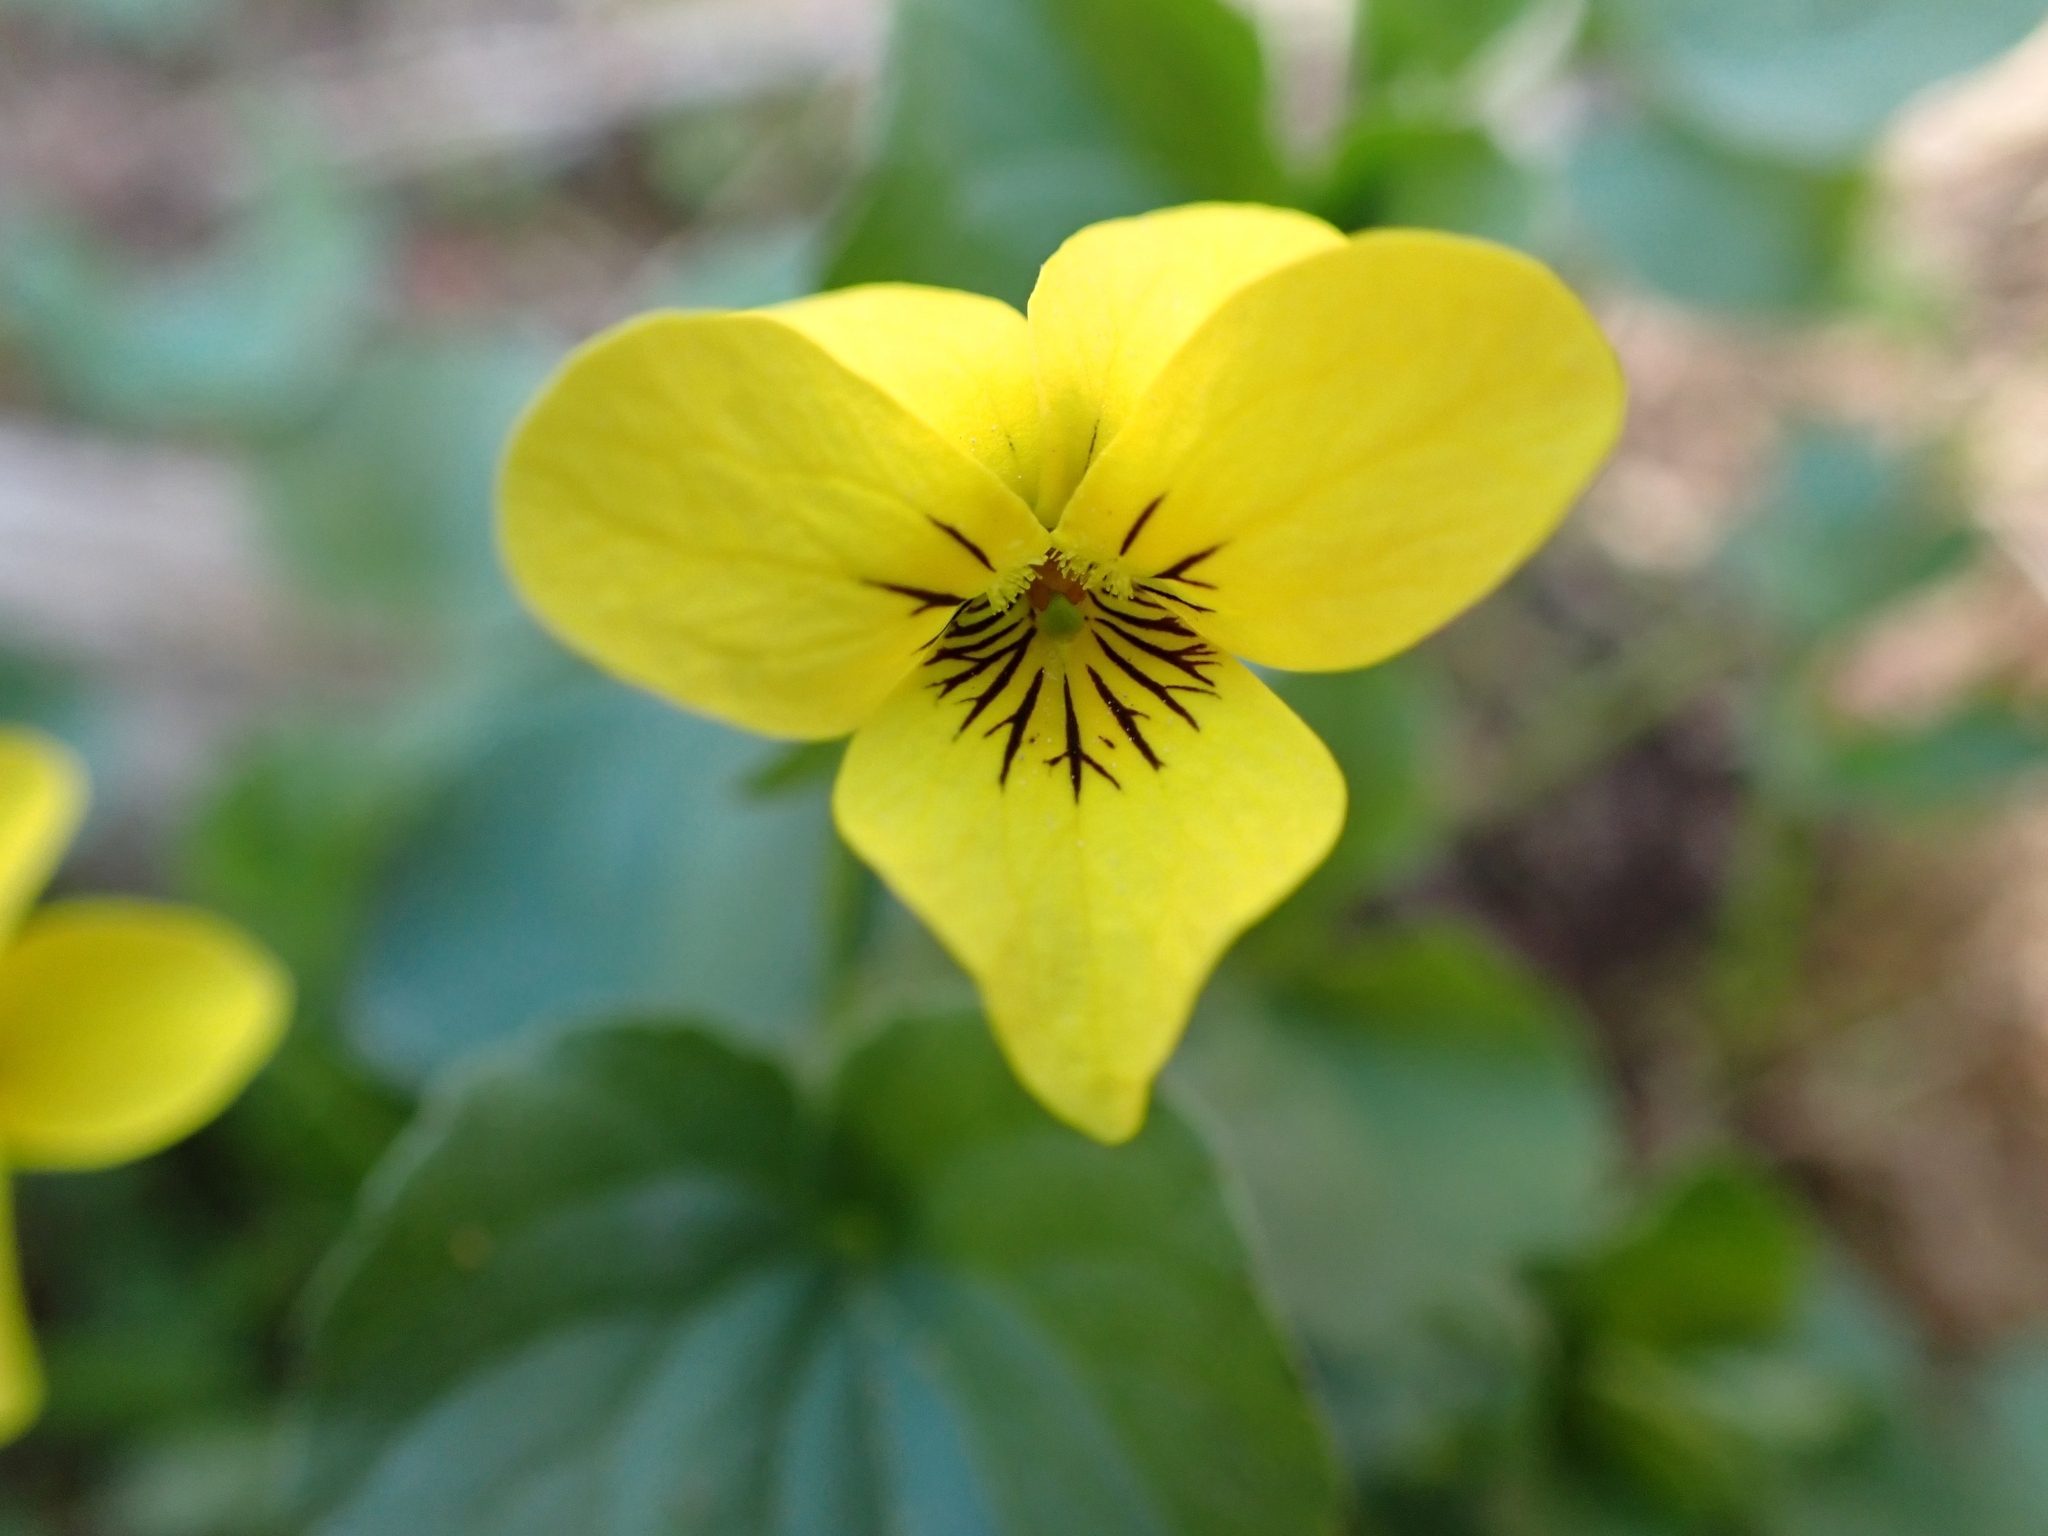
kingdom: Plantae
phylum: Tracheophyta
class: Magnoliopsida
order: Malpighiales
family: Violaceae
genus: Viola
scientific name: Viola glabella
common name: Stream violet
